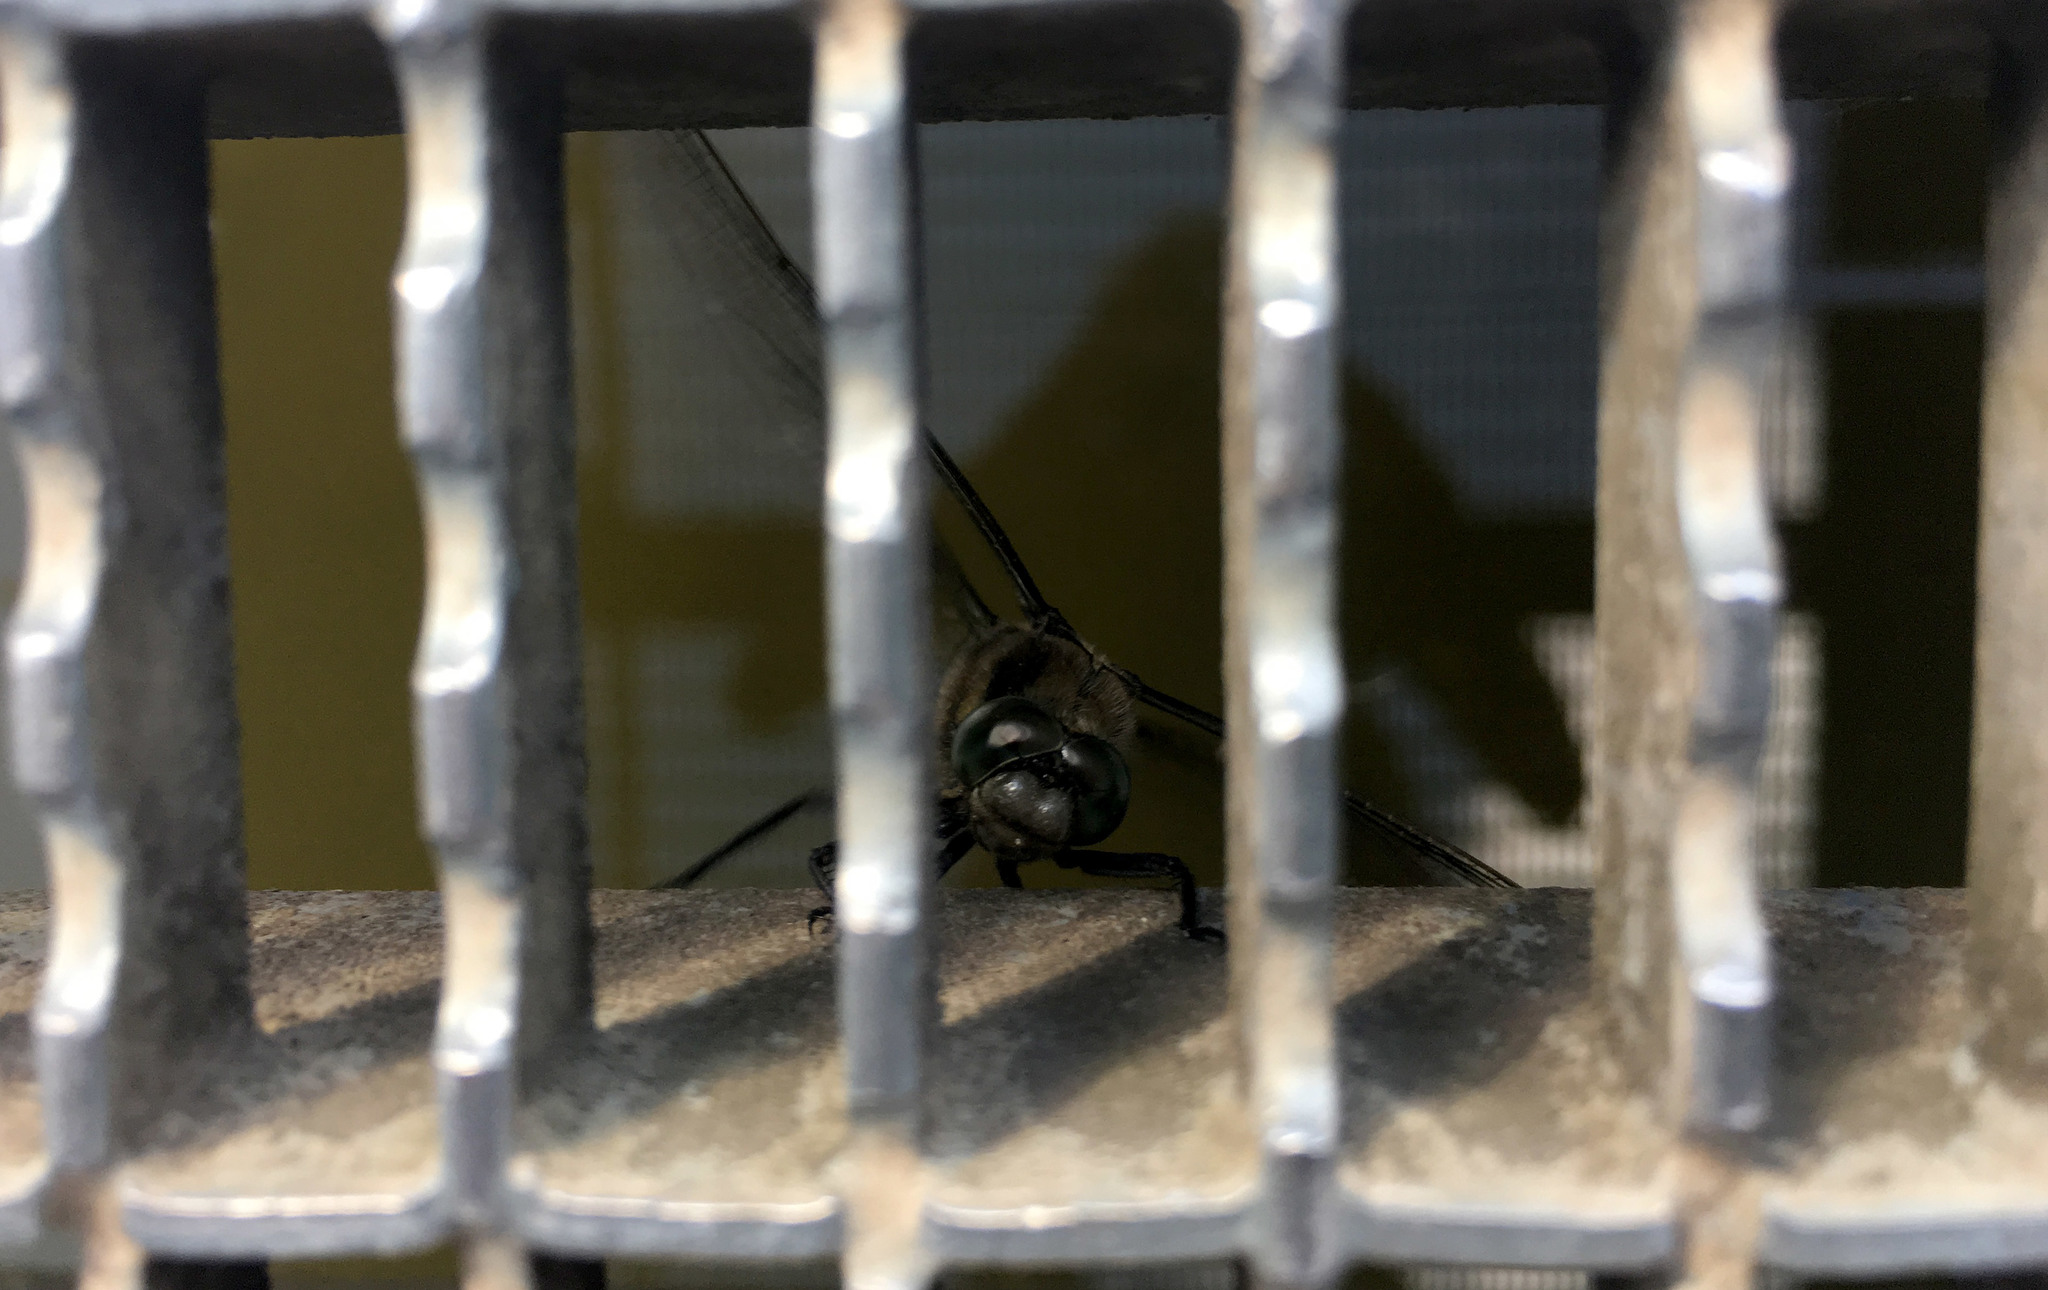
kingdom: Animalia
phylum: Arthropoda
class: Insecta
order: Odonata
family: Libellulidae
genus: Libellula
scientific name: Libellula quadrimaculata
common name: Four-spotted chaser
